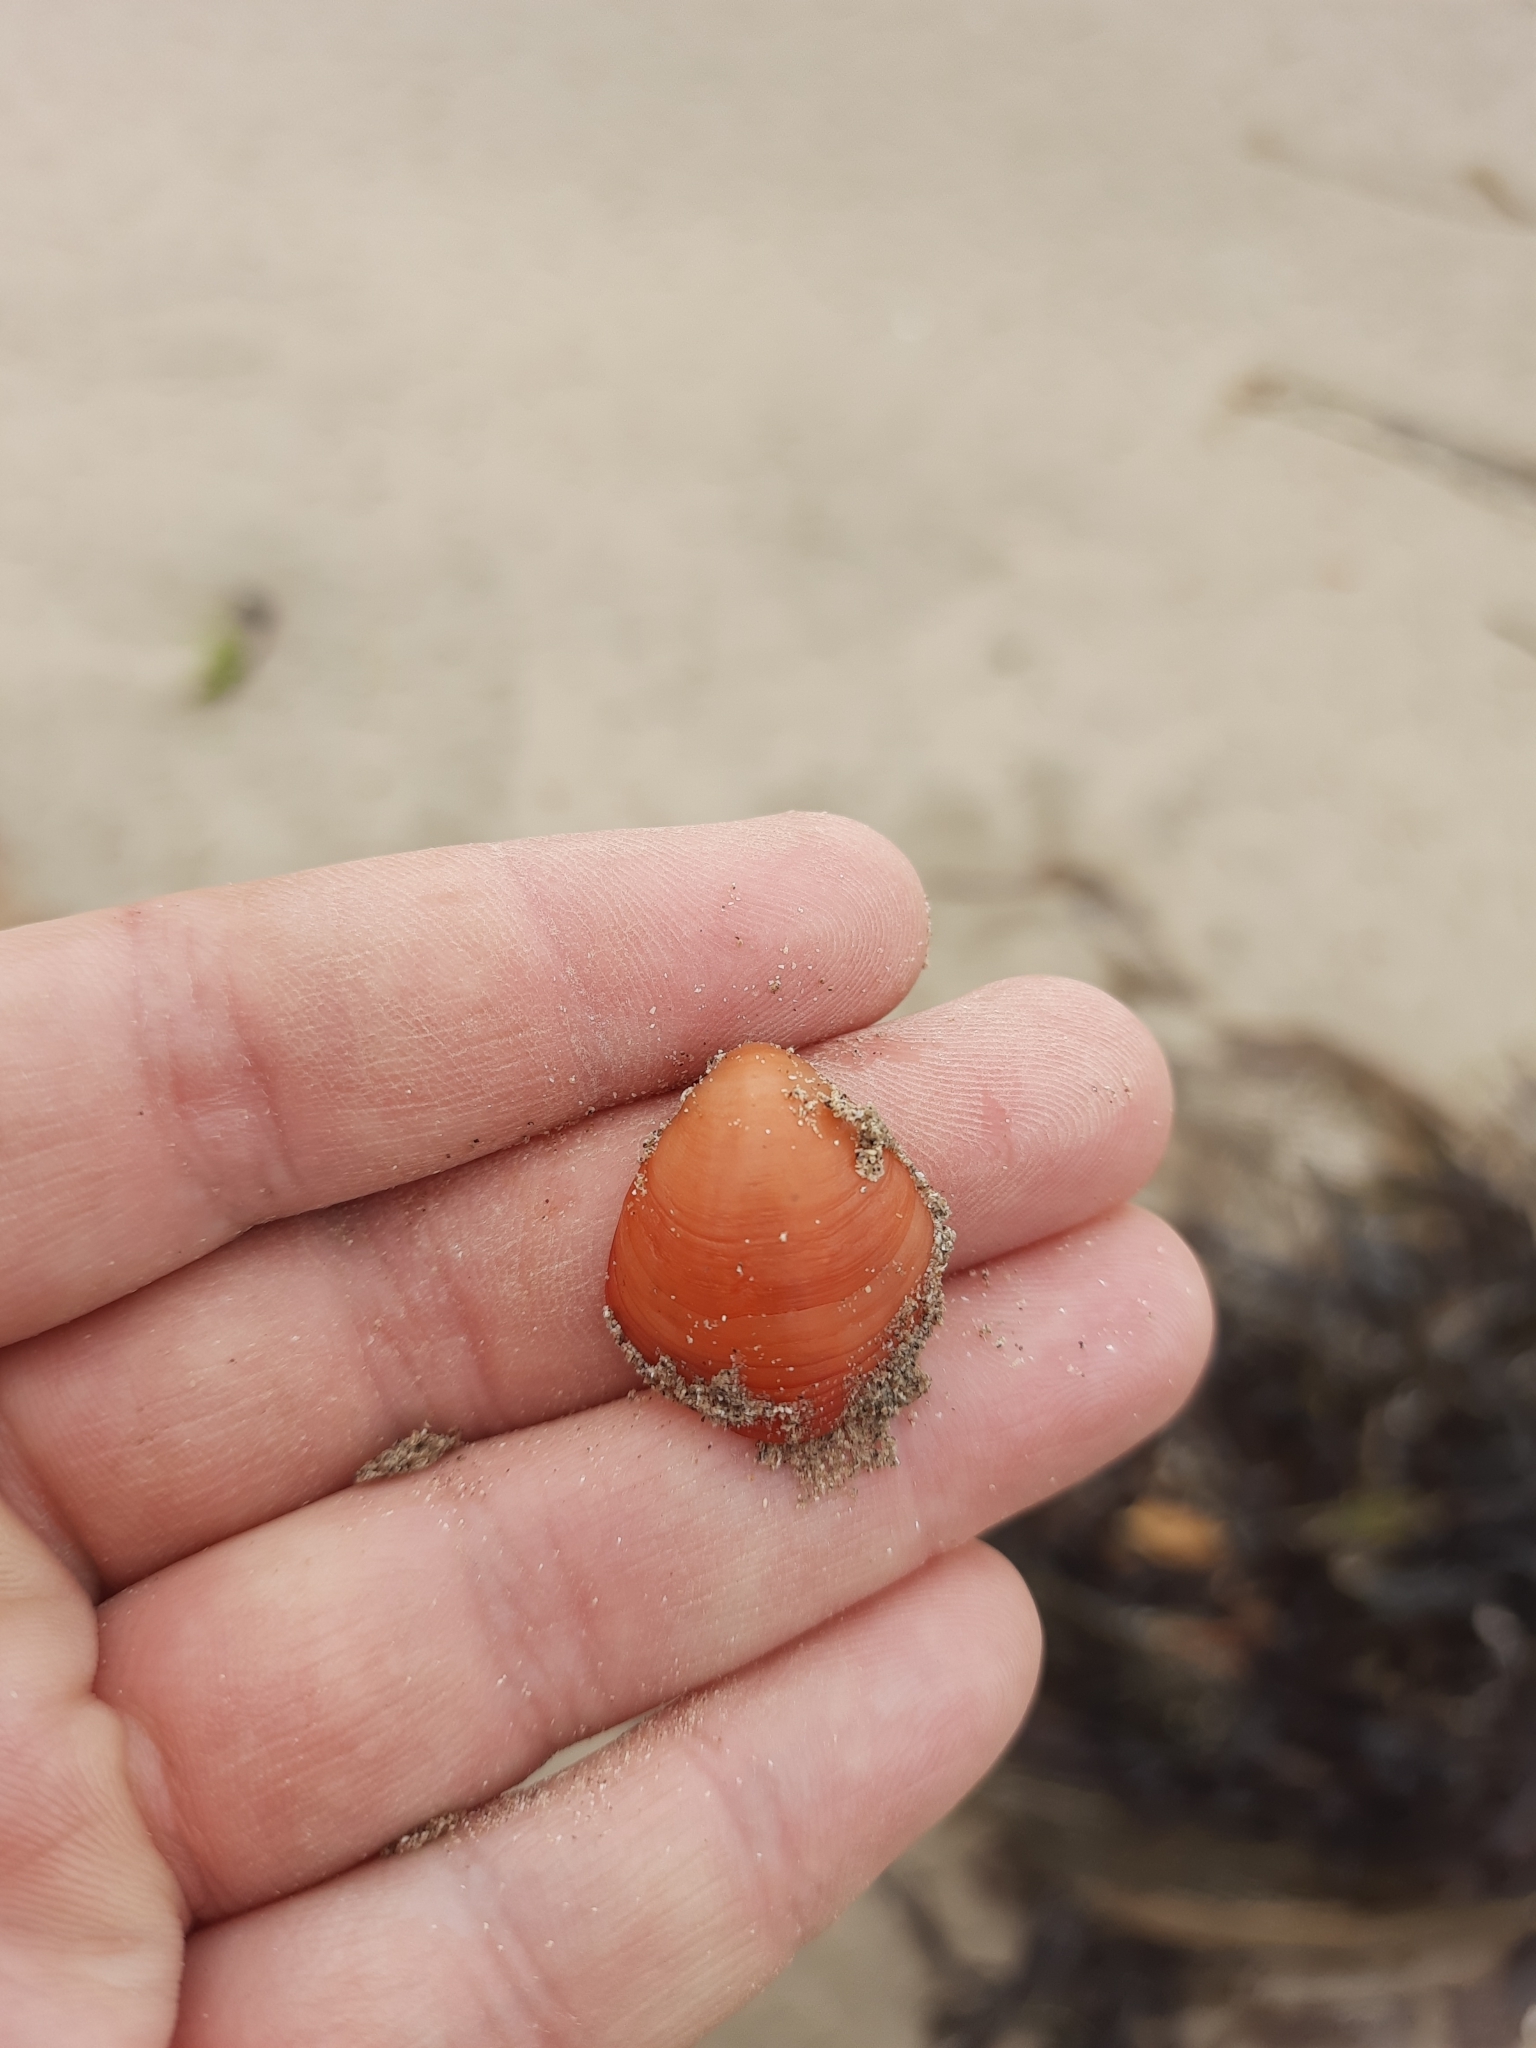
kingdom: Animalia
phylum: Brachiopoda
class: Rhynchonellata
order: Terebratulida
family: Terebratellidae
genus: Calloria
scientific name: Calloria inconspicua
